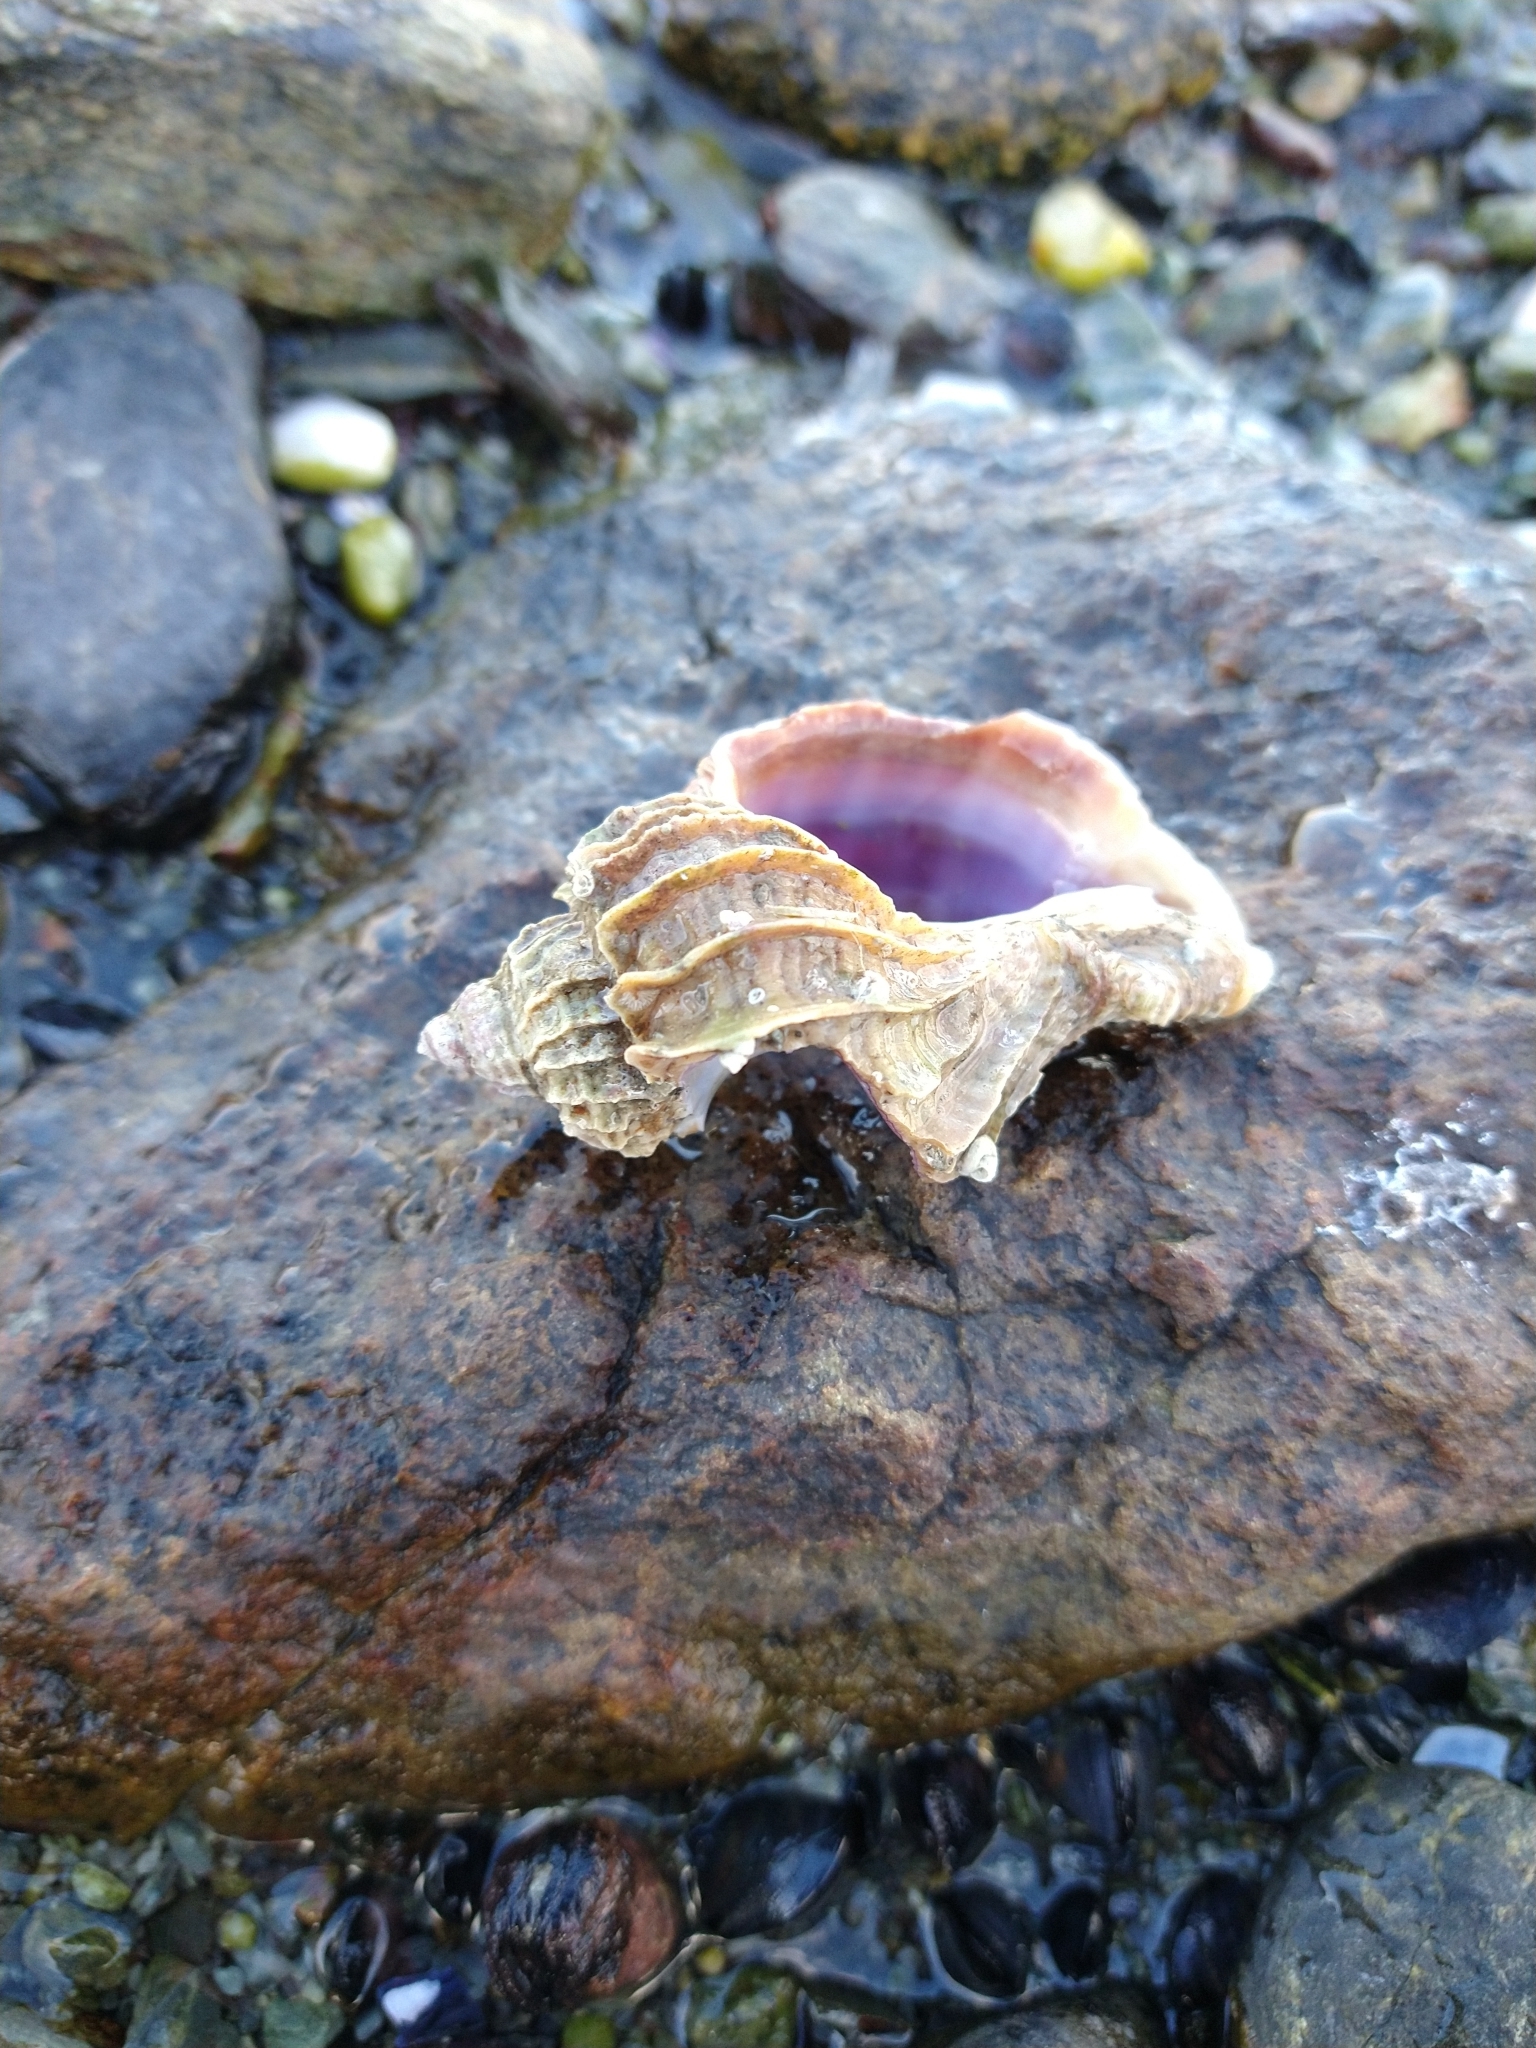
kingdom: Animalia
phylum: Mollusca
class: Gastropoda
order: Neogastropoda
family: Muricidae
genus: Trophon
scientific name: Trophon geversianus
